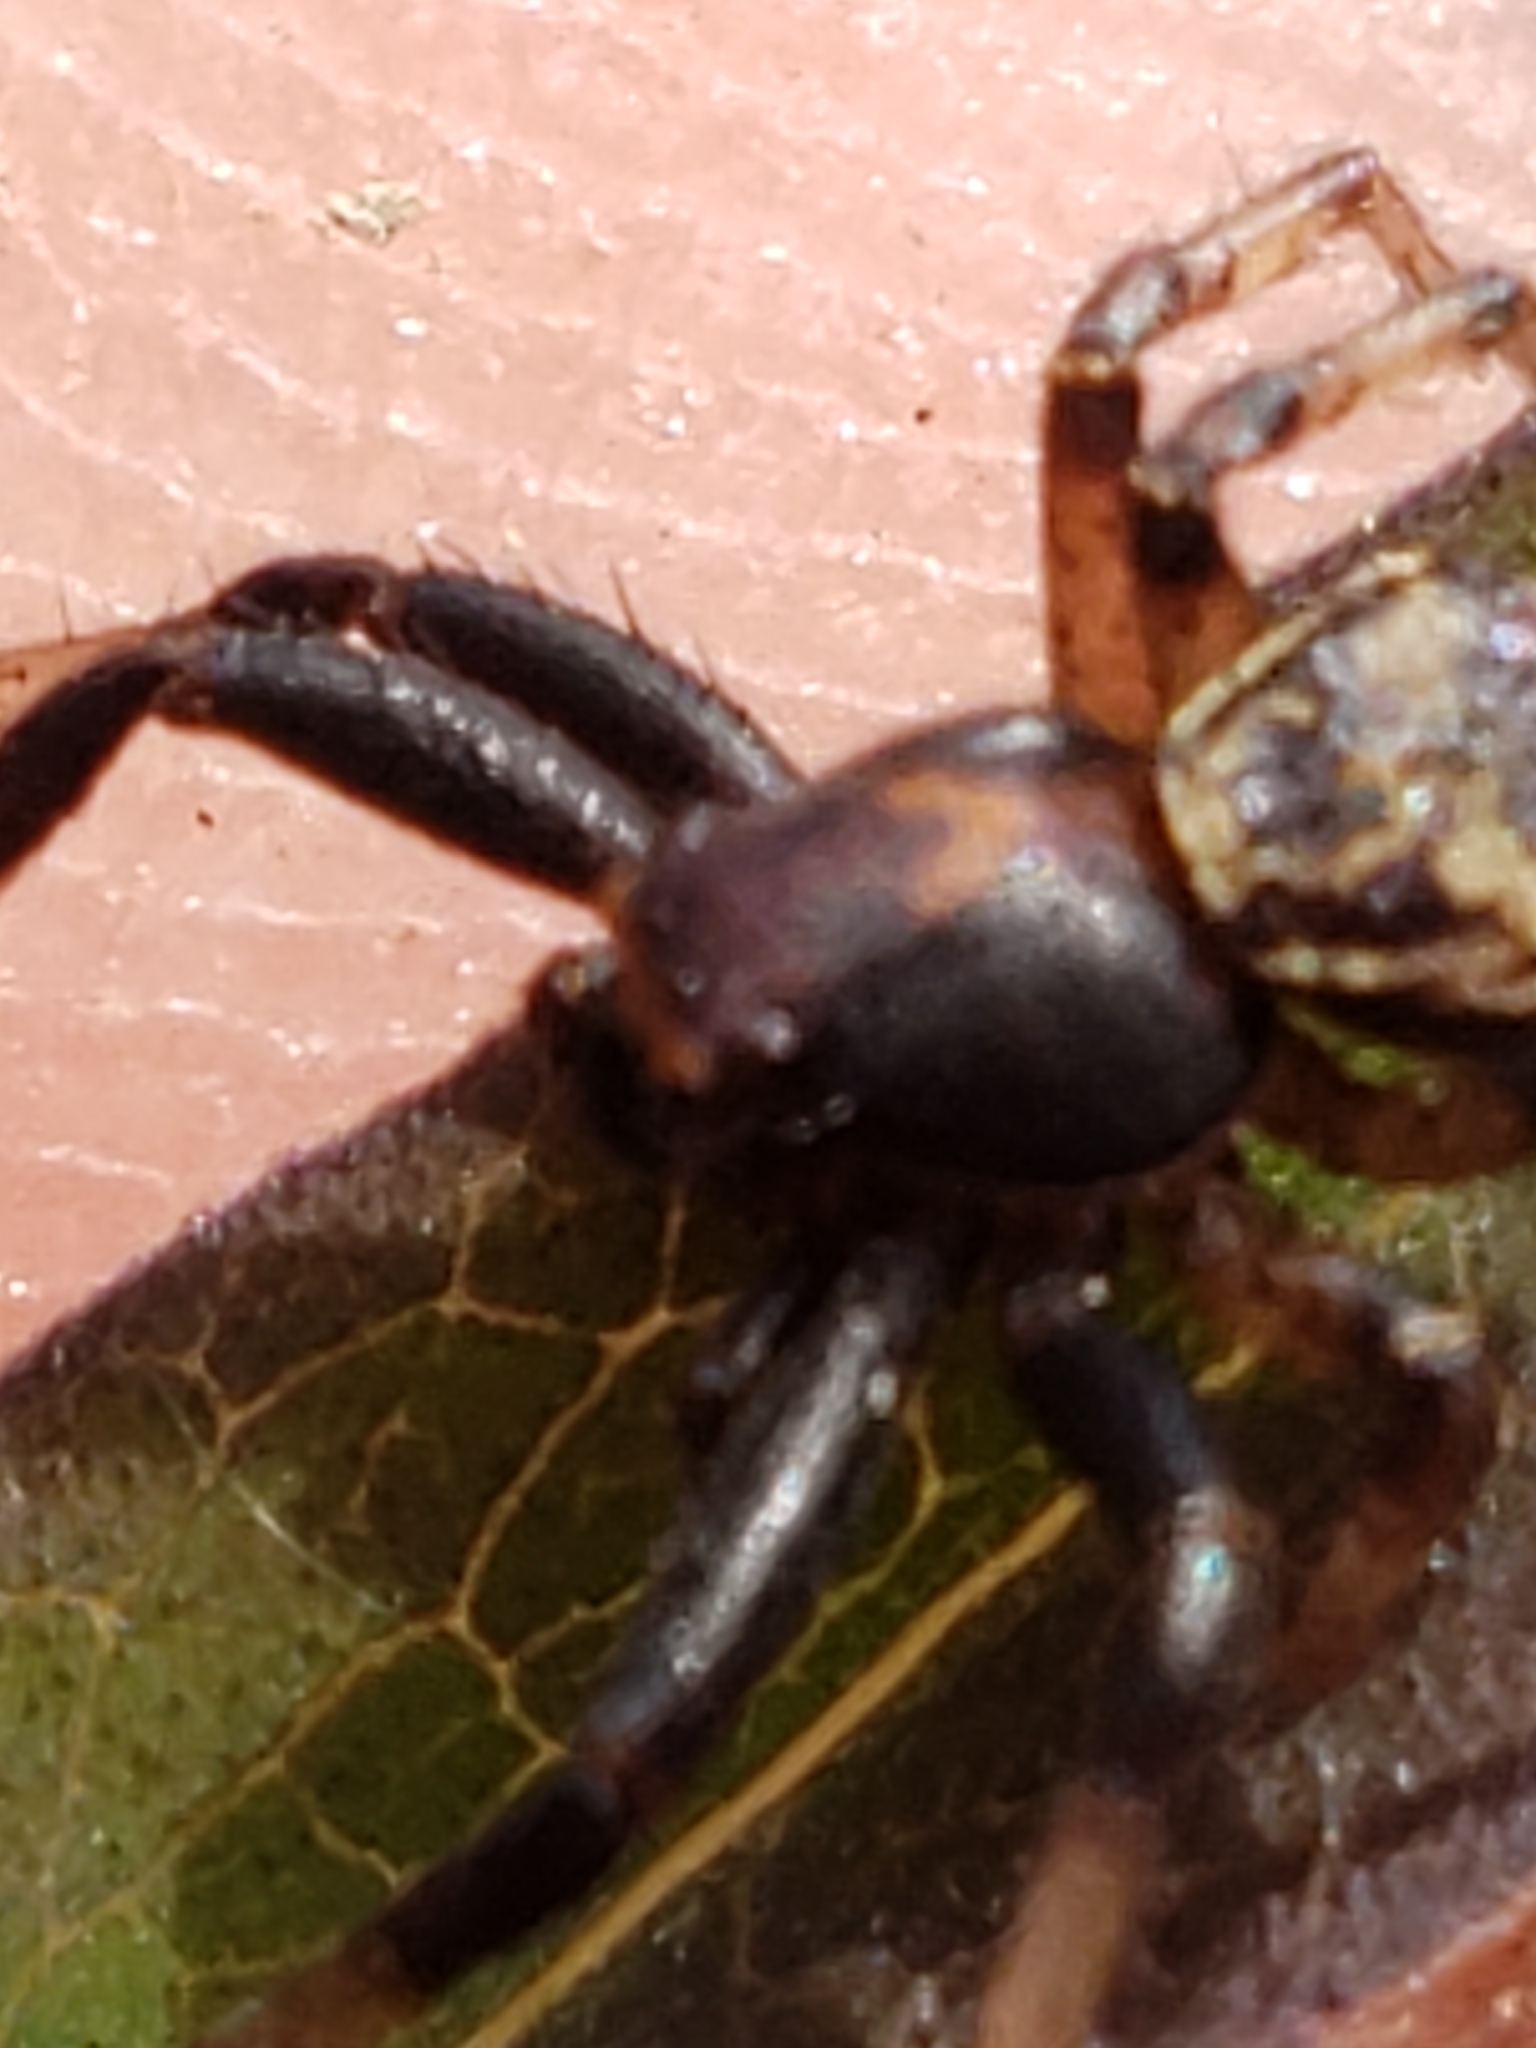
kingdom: Animalia
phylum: Arthropoda
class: Arachnida
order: Araneae
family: Thomisidae
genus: Xysticus
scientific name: Xysticus fraternus
